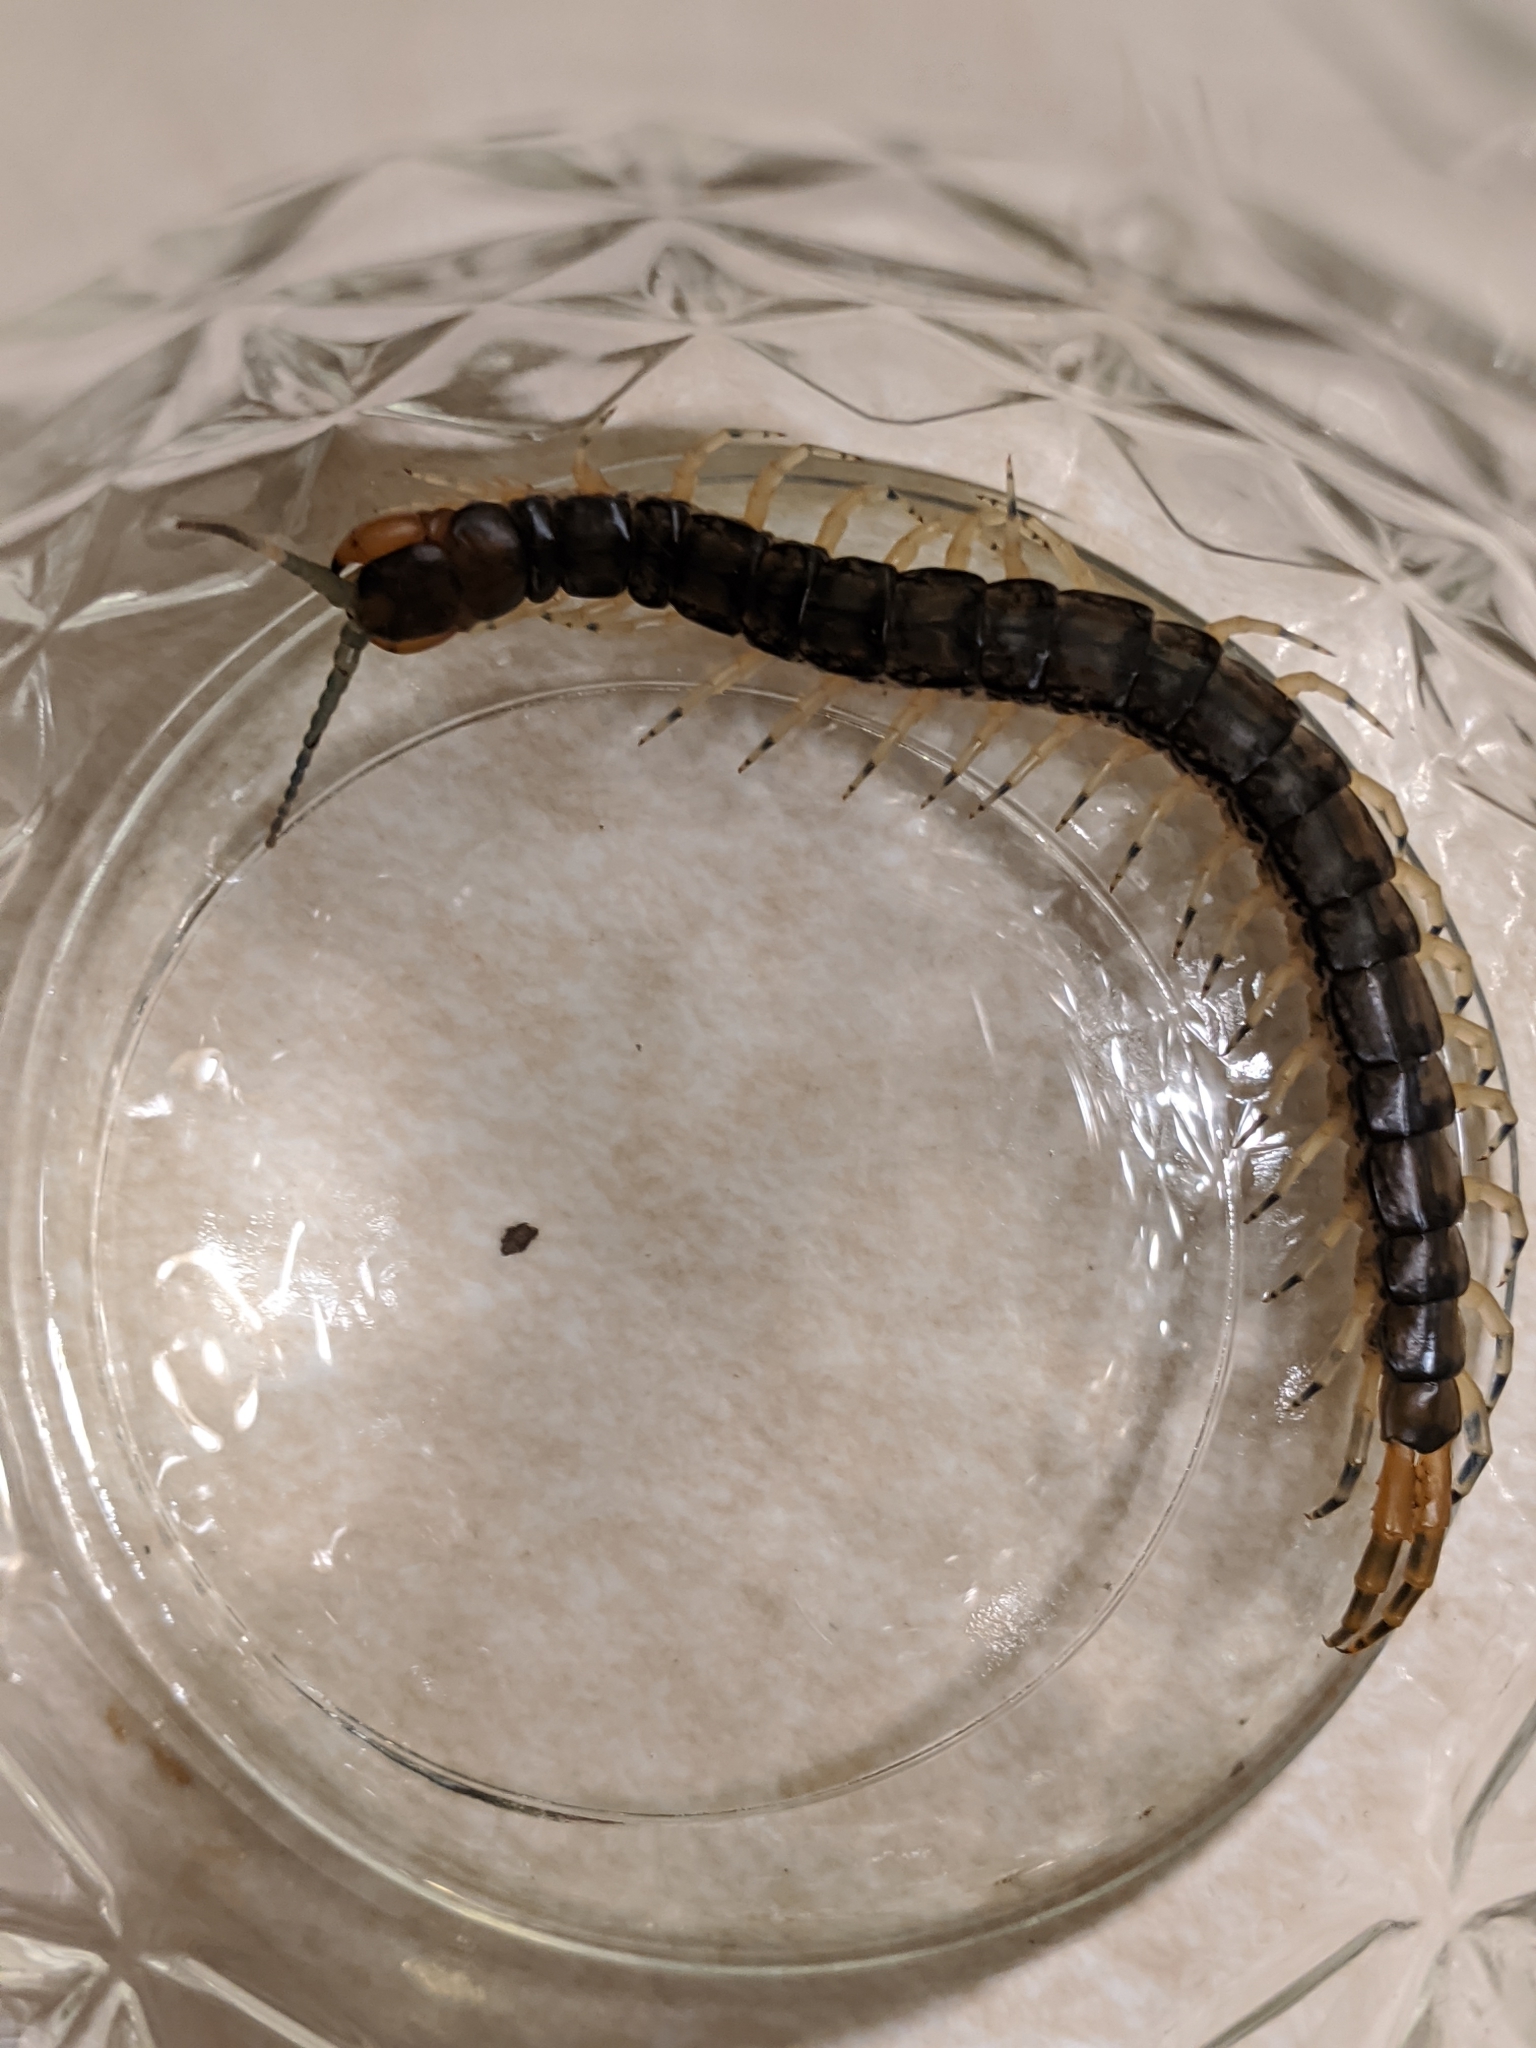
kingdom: Animalia
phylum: Arthropoda
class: Chilopoda
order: Scolopendromorpha
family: Scolopendridae
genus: Hemiscolopendra
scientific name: Hemiscolopendra marginata
